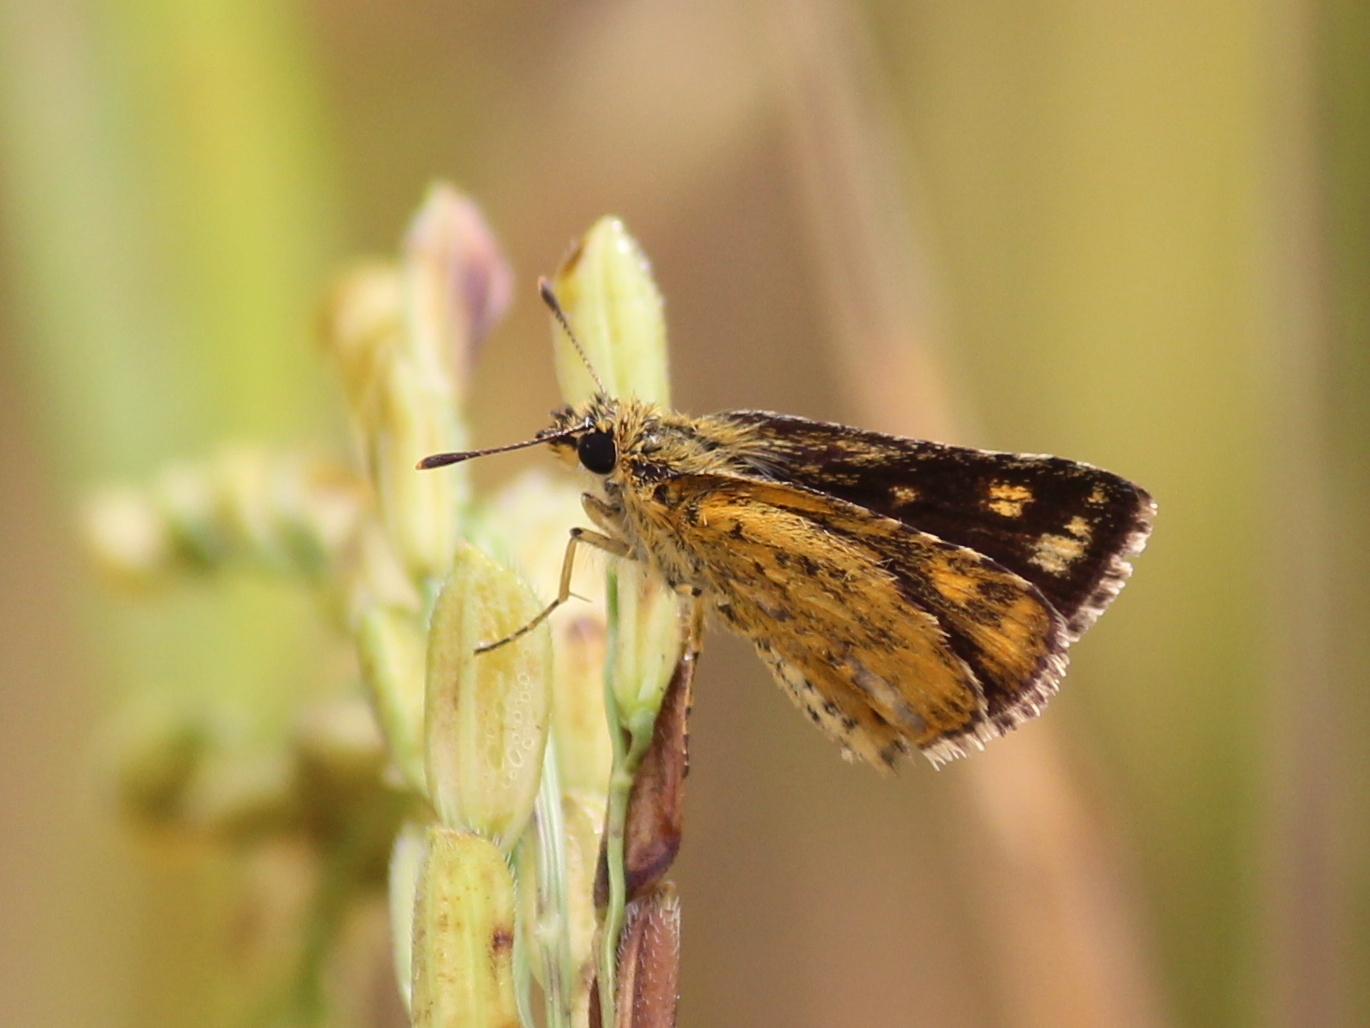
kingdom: Animalia
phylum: Arthropoda
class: Insecta
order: Lepidoptera
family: Hesperiidae
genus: Ampittia
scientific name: Ampittia dioscorides
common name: Common bush hopper
